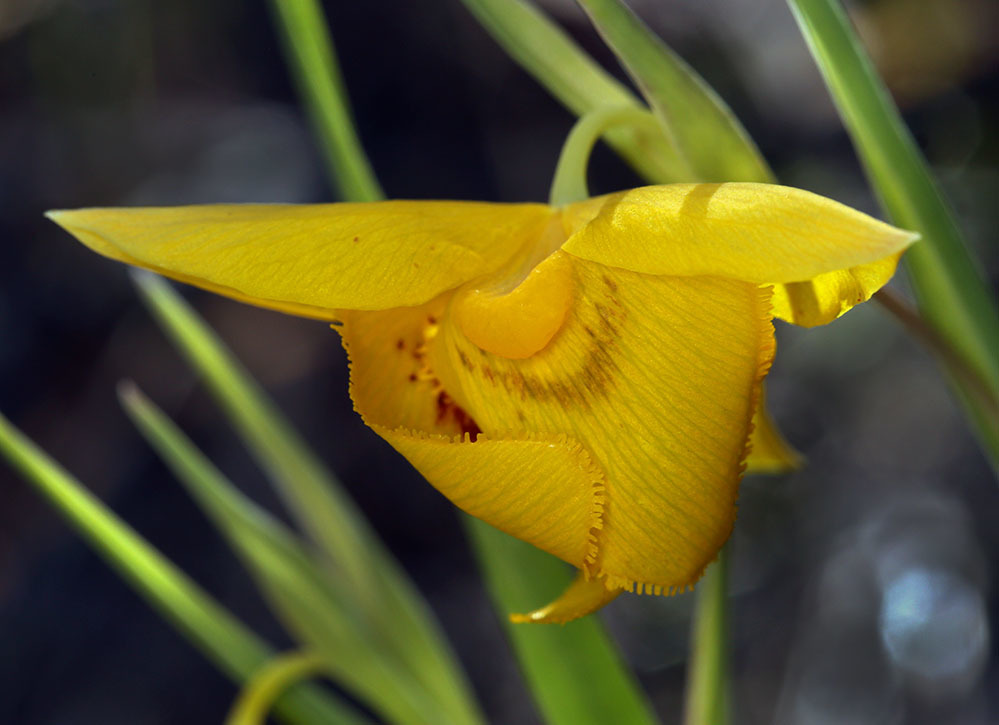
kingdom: Plantae
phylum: Tracheophyta
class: Liliopsida
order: Liliales
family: Liliaceae
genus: Calochortus
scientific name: Calochortus amabilis
